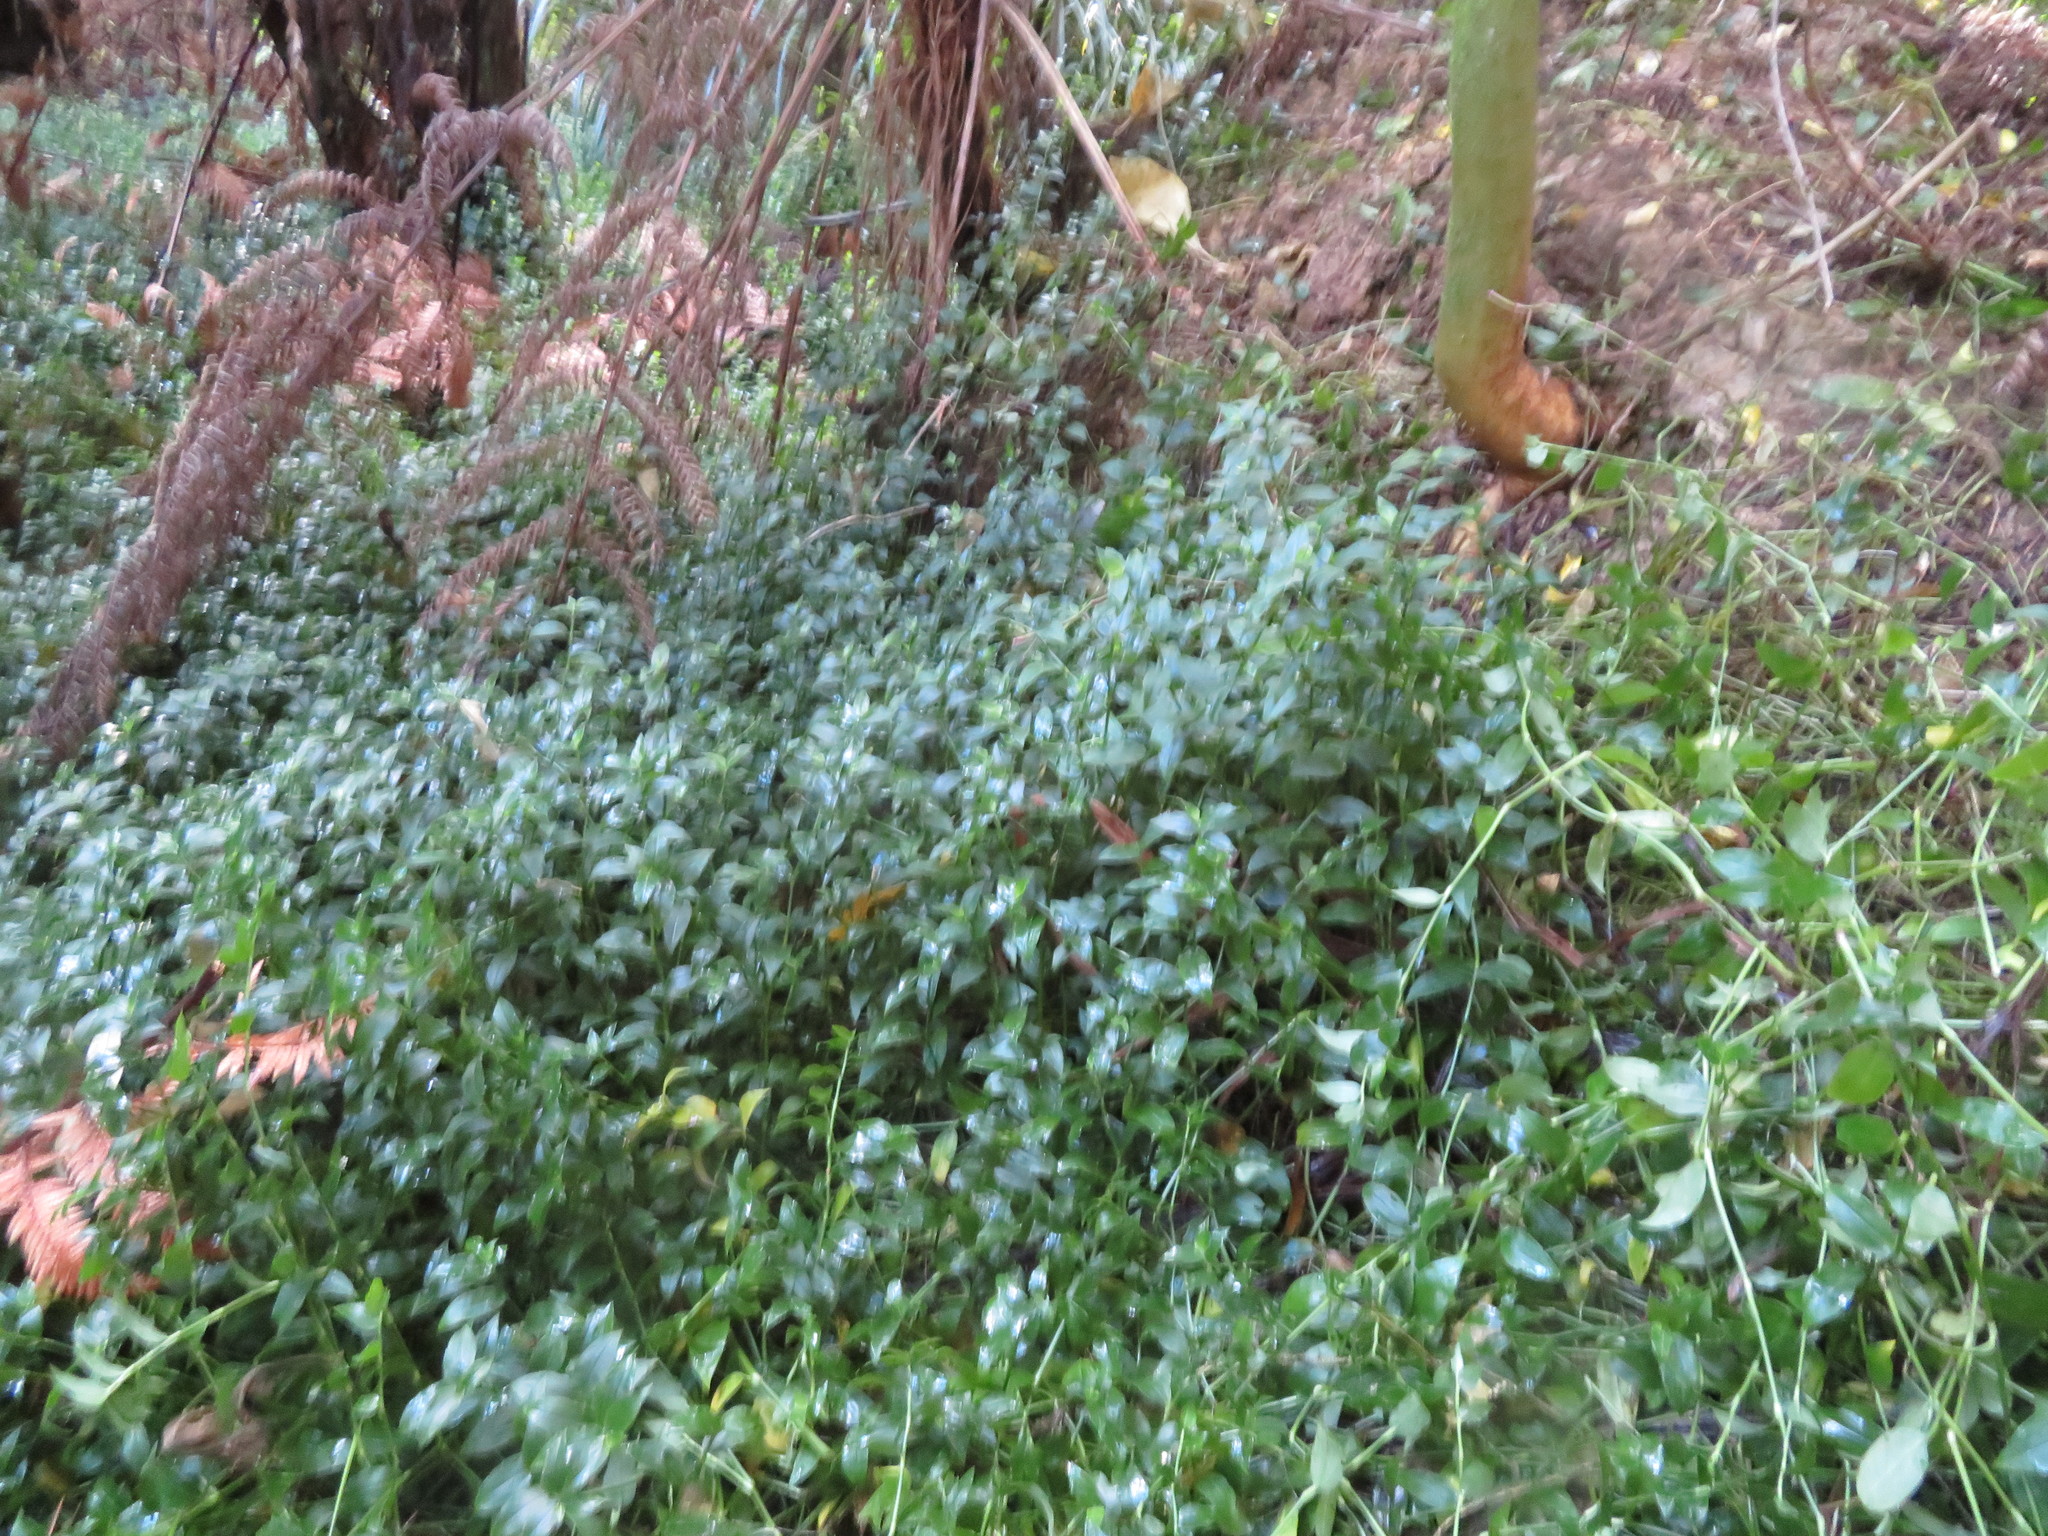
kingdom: Plantae
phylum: Tracheophyta
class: Liliopsida
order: Commelinales
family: Commelinaceae
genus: Tradescantia
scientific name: Tradescantia fluminensis
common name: Wandering-jew
